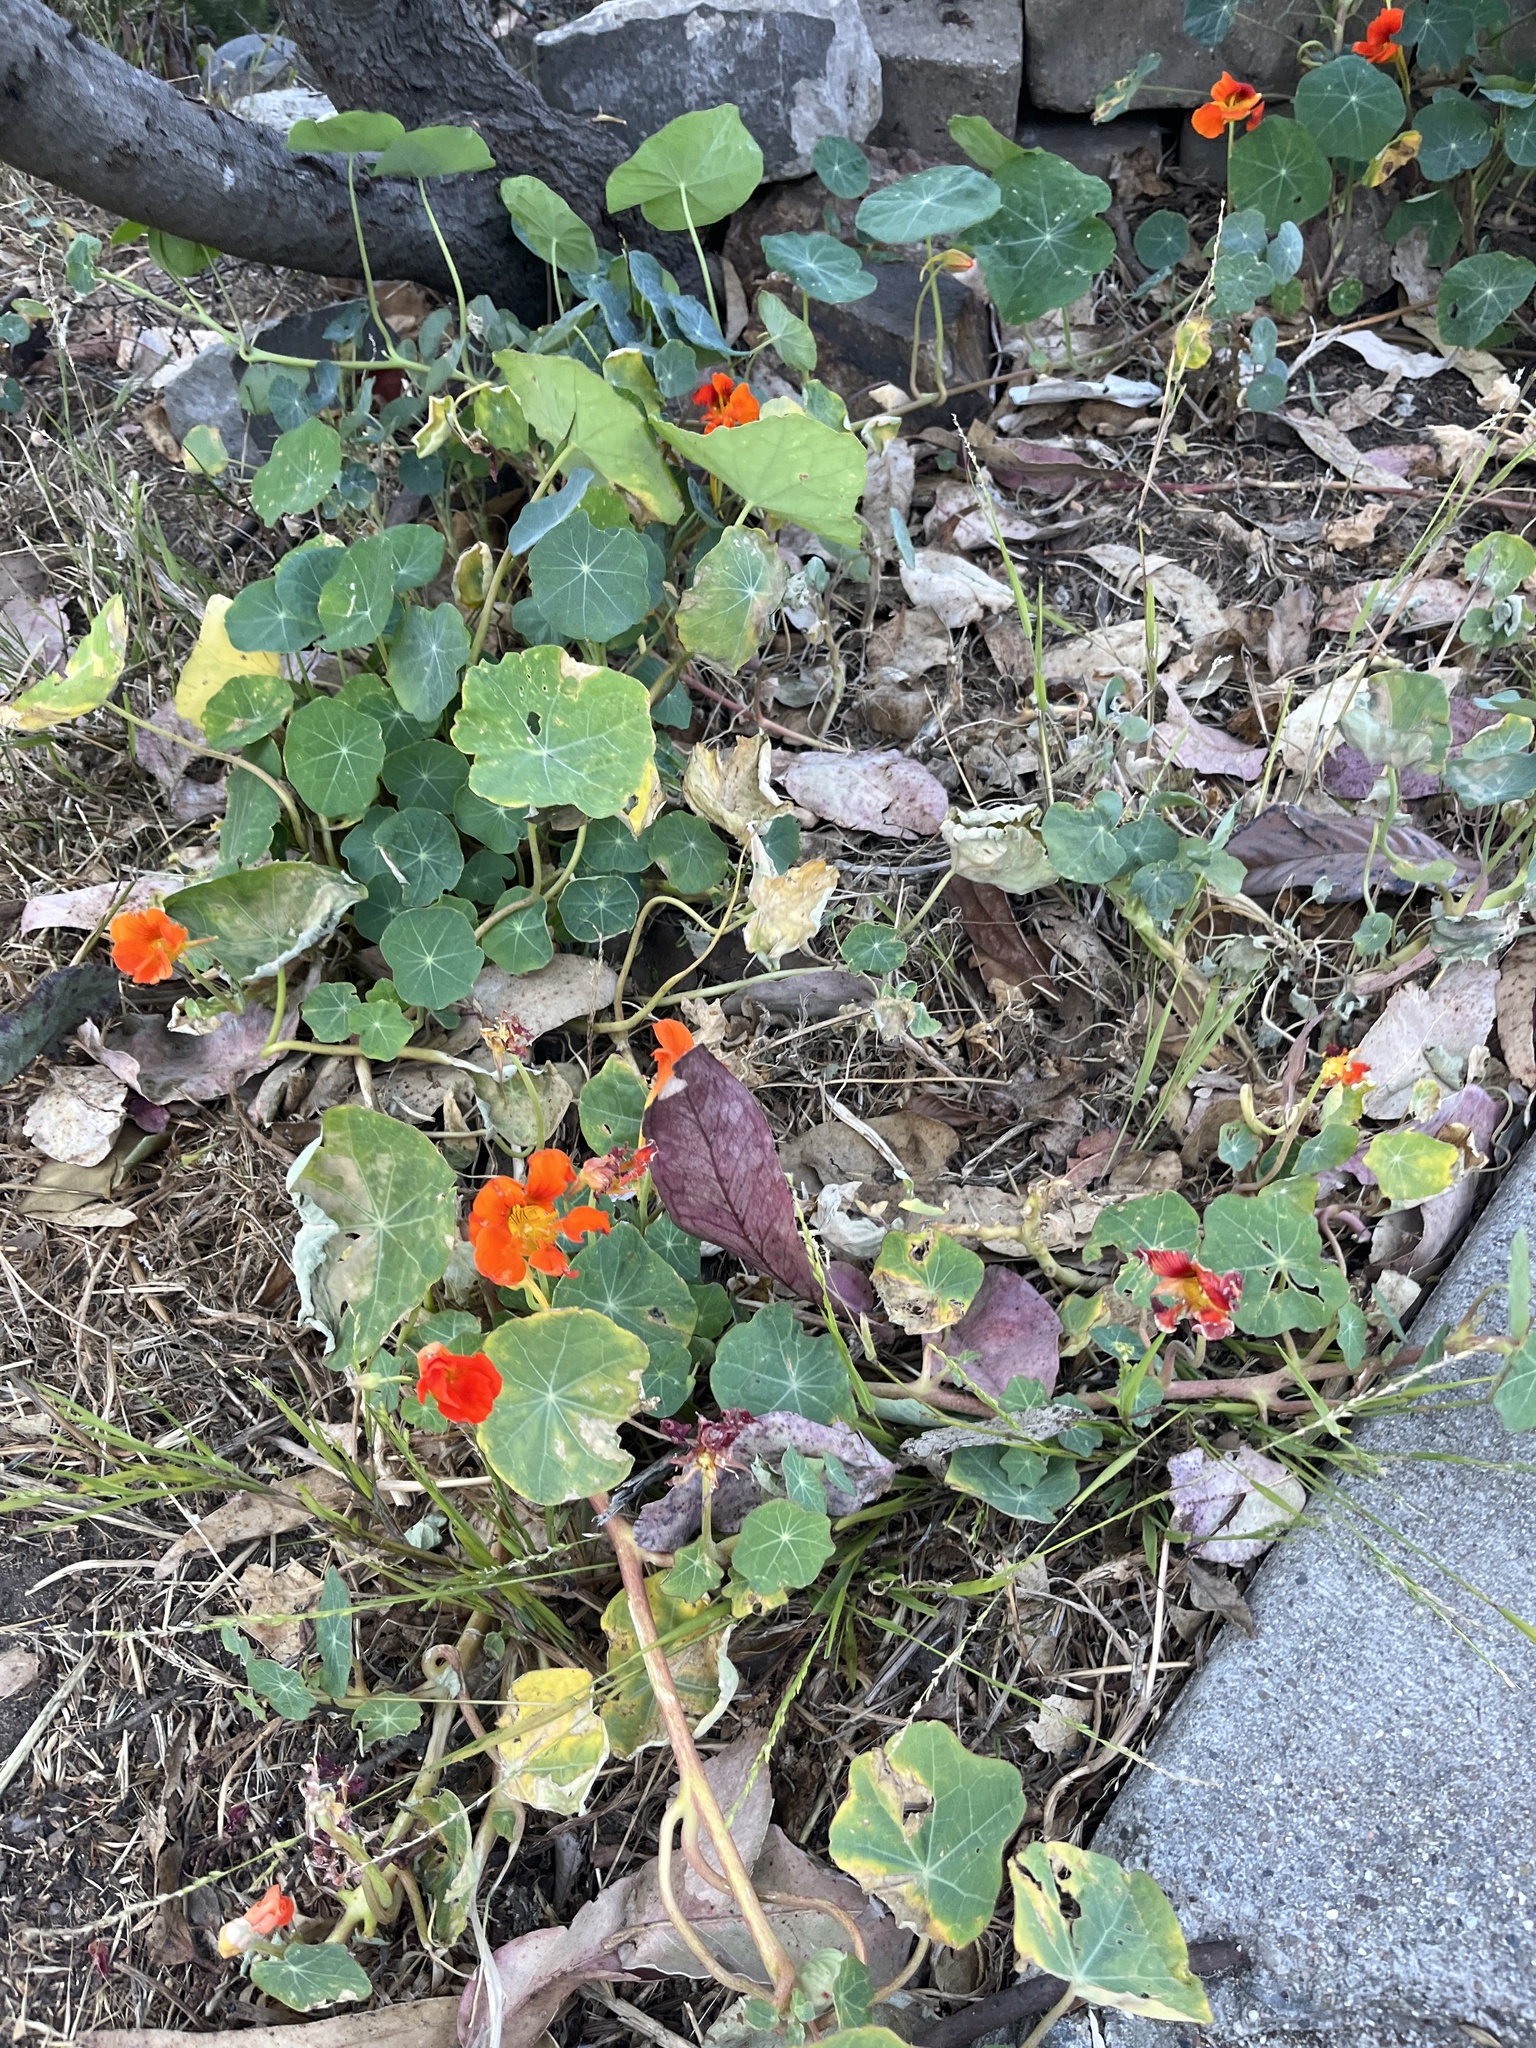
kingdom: Plantae
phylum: Tracheophyta
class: Magnoliopsida
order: Brassicales
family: Tropaeolaceae
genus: Tropaeolum
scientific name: Tropaeolum majus
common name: Nasturtium
